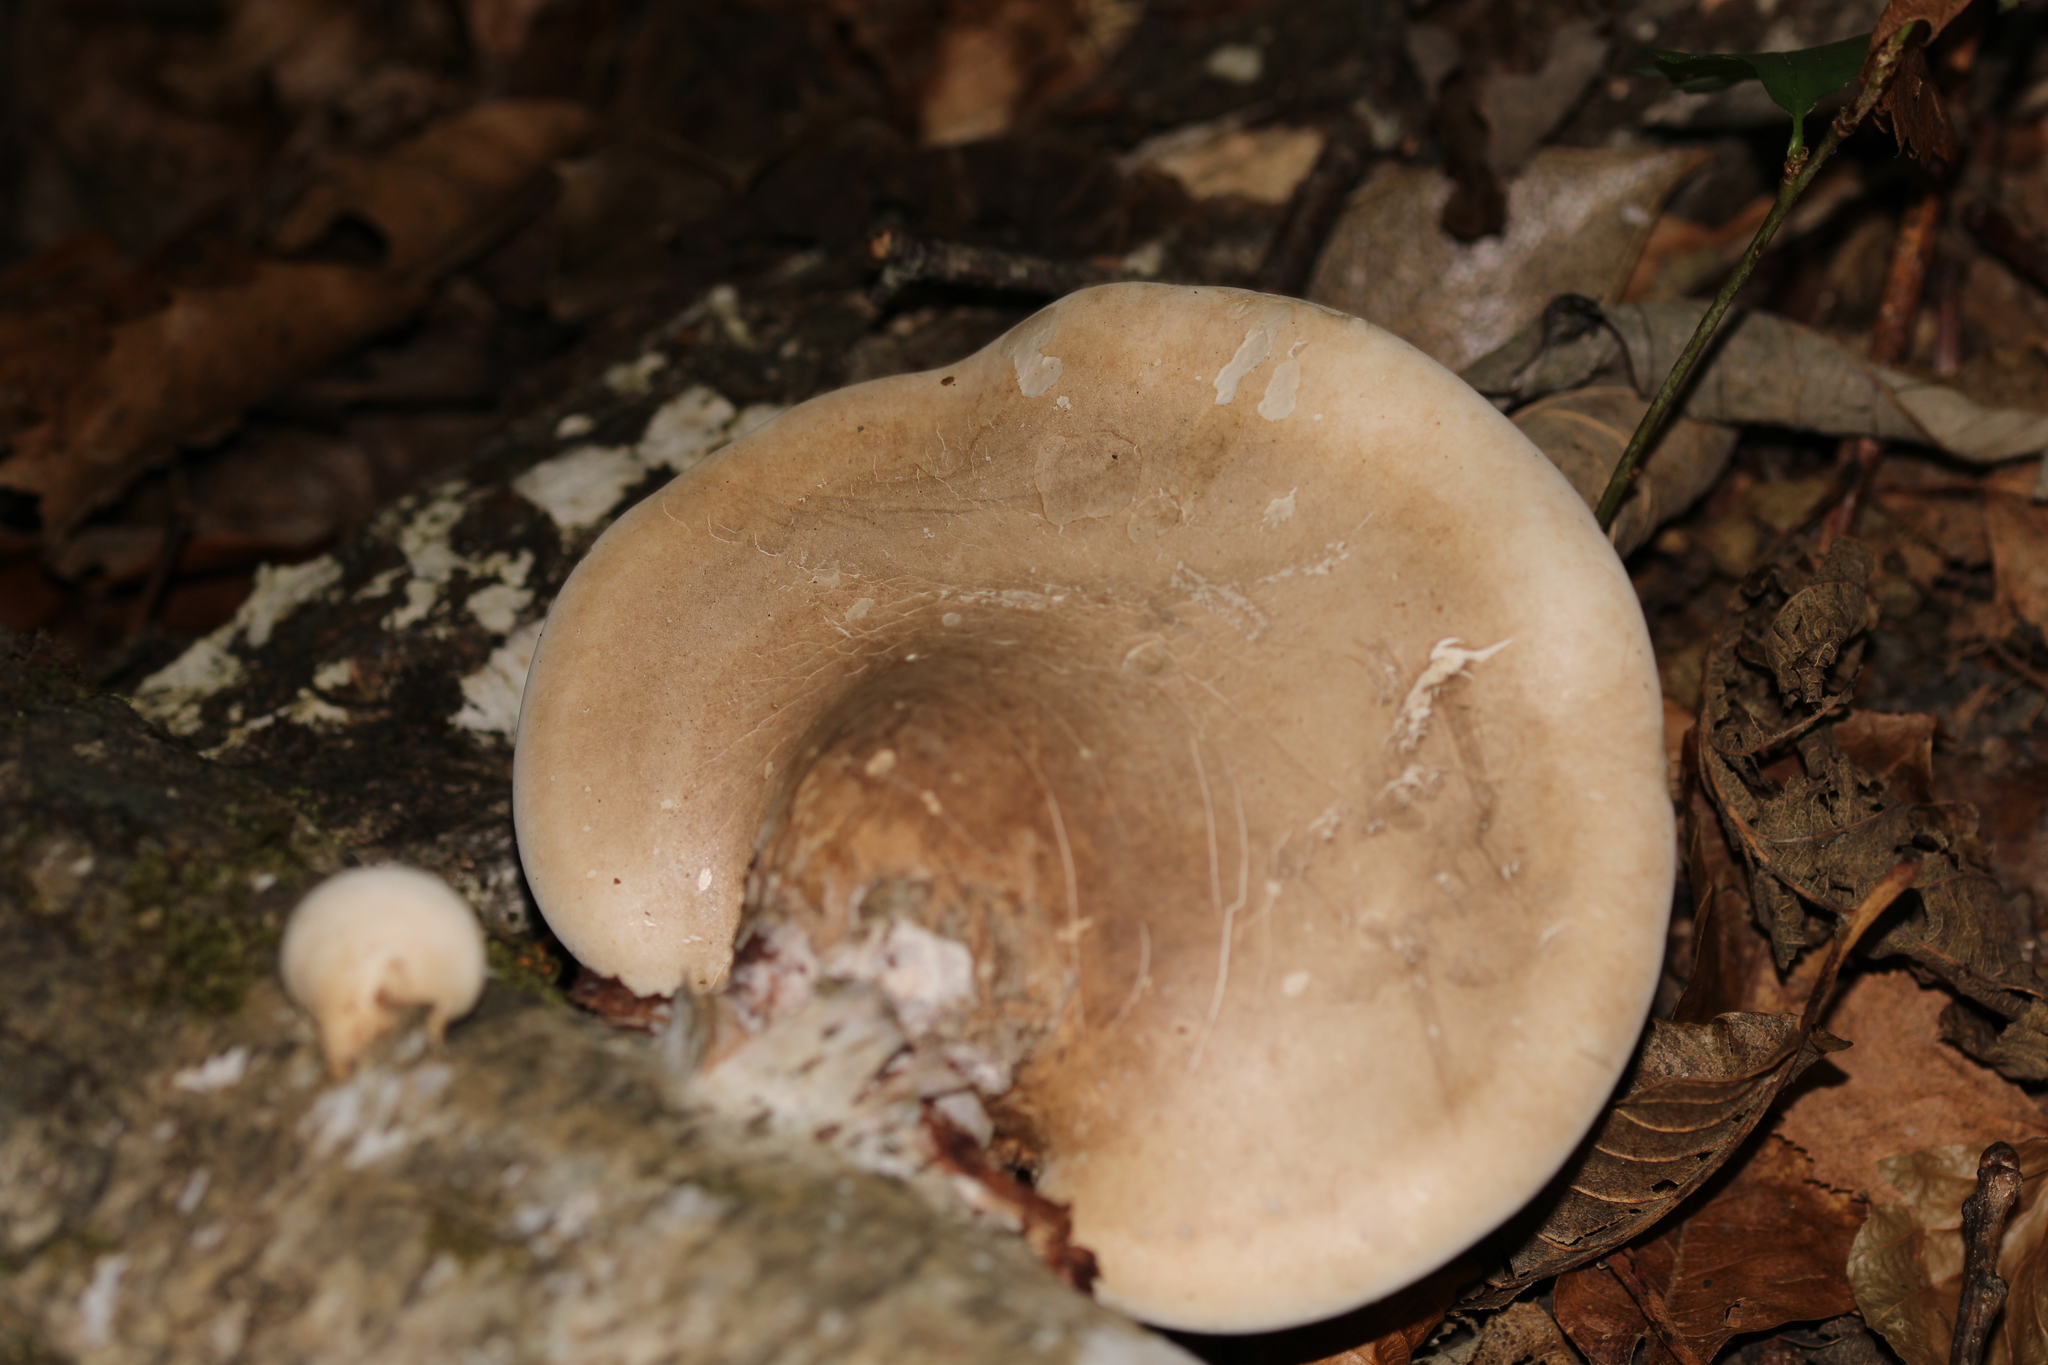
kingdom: Fungi
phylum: Basidiomycota
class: Agaricomycetes
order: Polyporales
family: Fomitopsidaceae
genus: Fomitopsis
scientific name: Fomitopsis betulina
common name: Birch polypore
